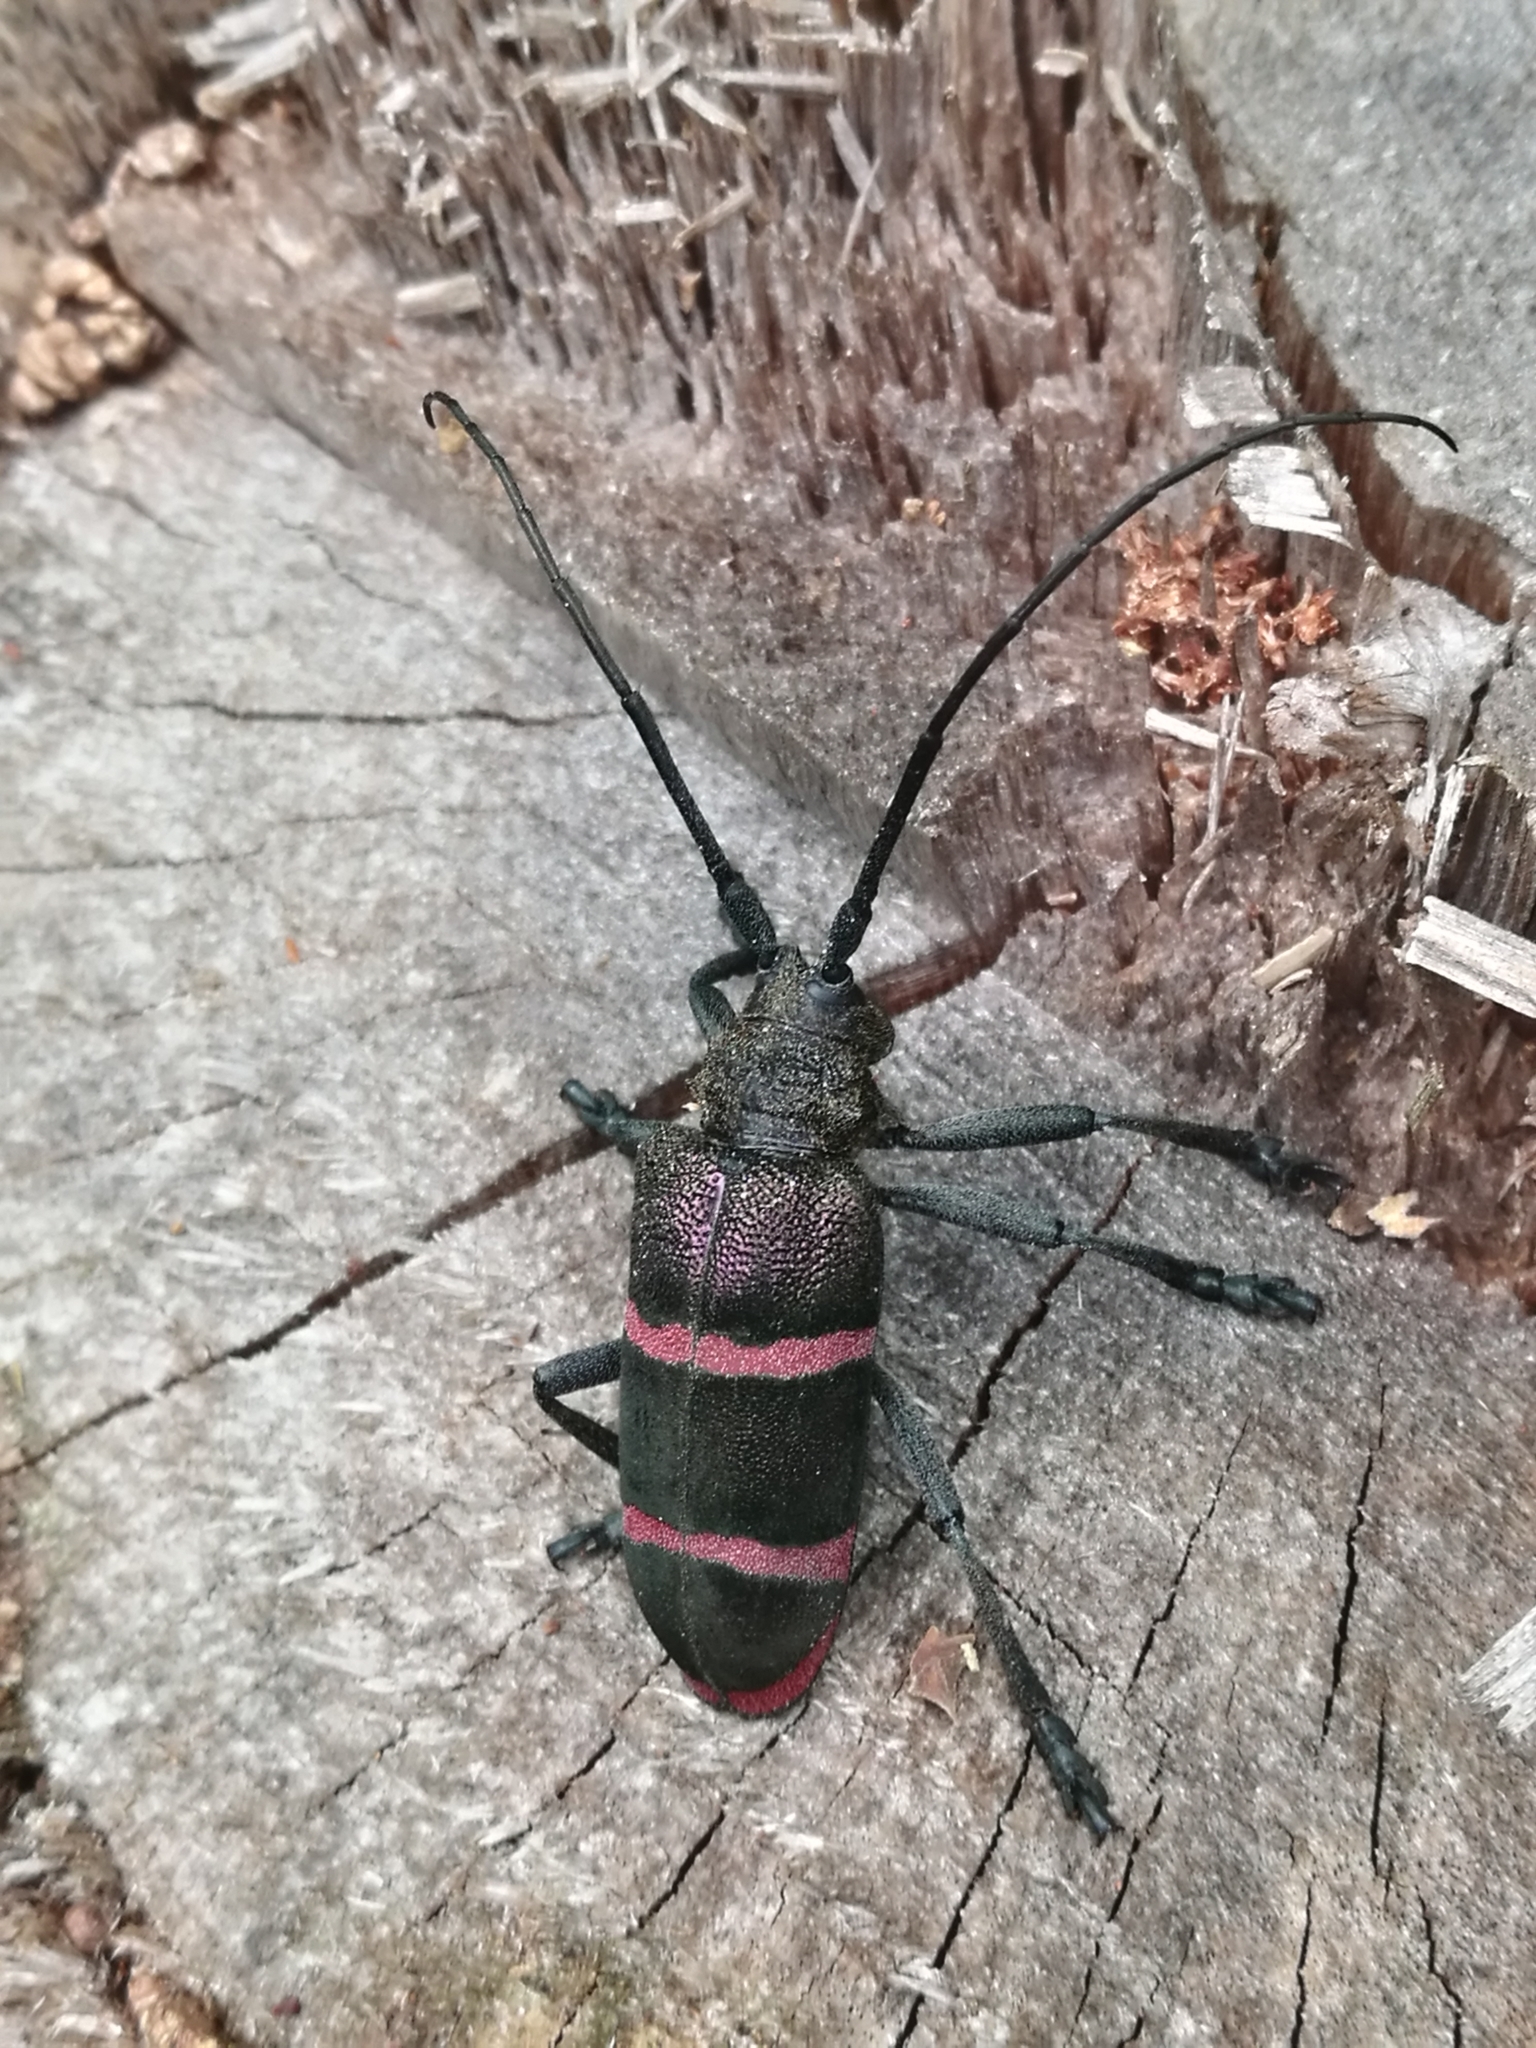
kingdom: Animalia
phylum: Arthropoda
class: Insecta
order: Coleoptera
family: Cerambycidae
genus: Ceroplesis
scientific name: Ceroplesis orientalis
